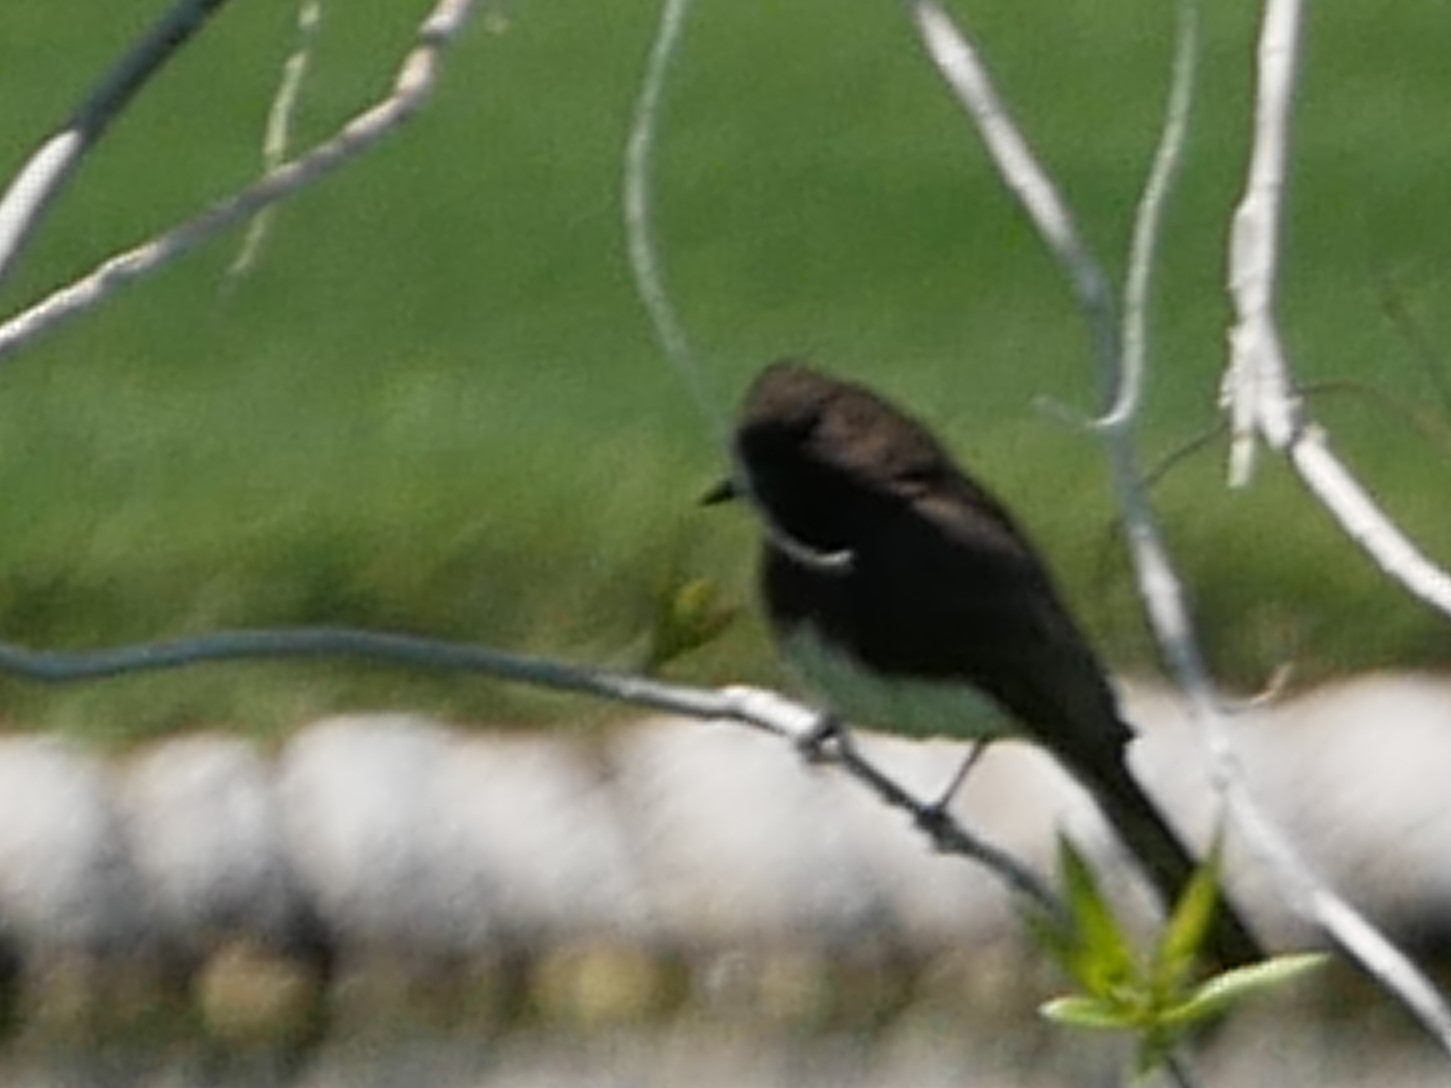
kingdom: Animalia
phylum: Chordata
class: Aves
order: Passeriformes
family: Tyrannidae
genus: Sayornis
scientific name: Sayornis nigricans
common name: Black phoebe
